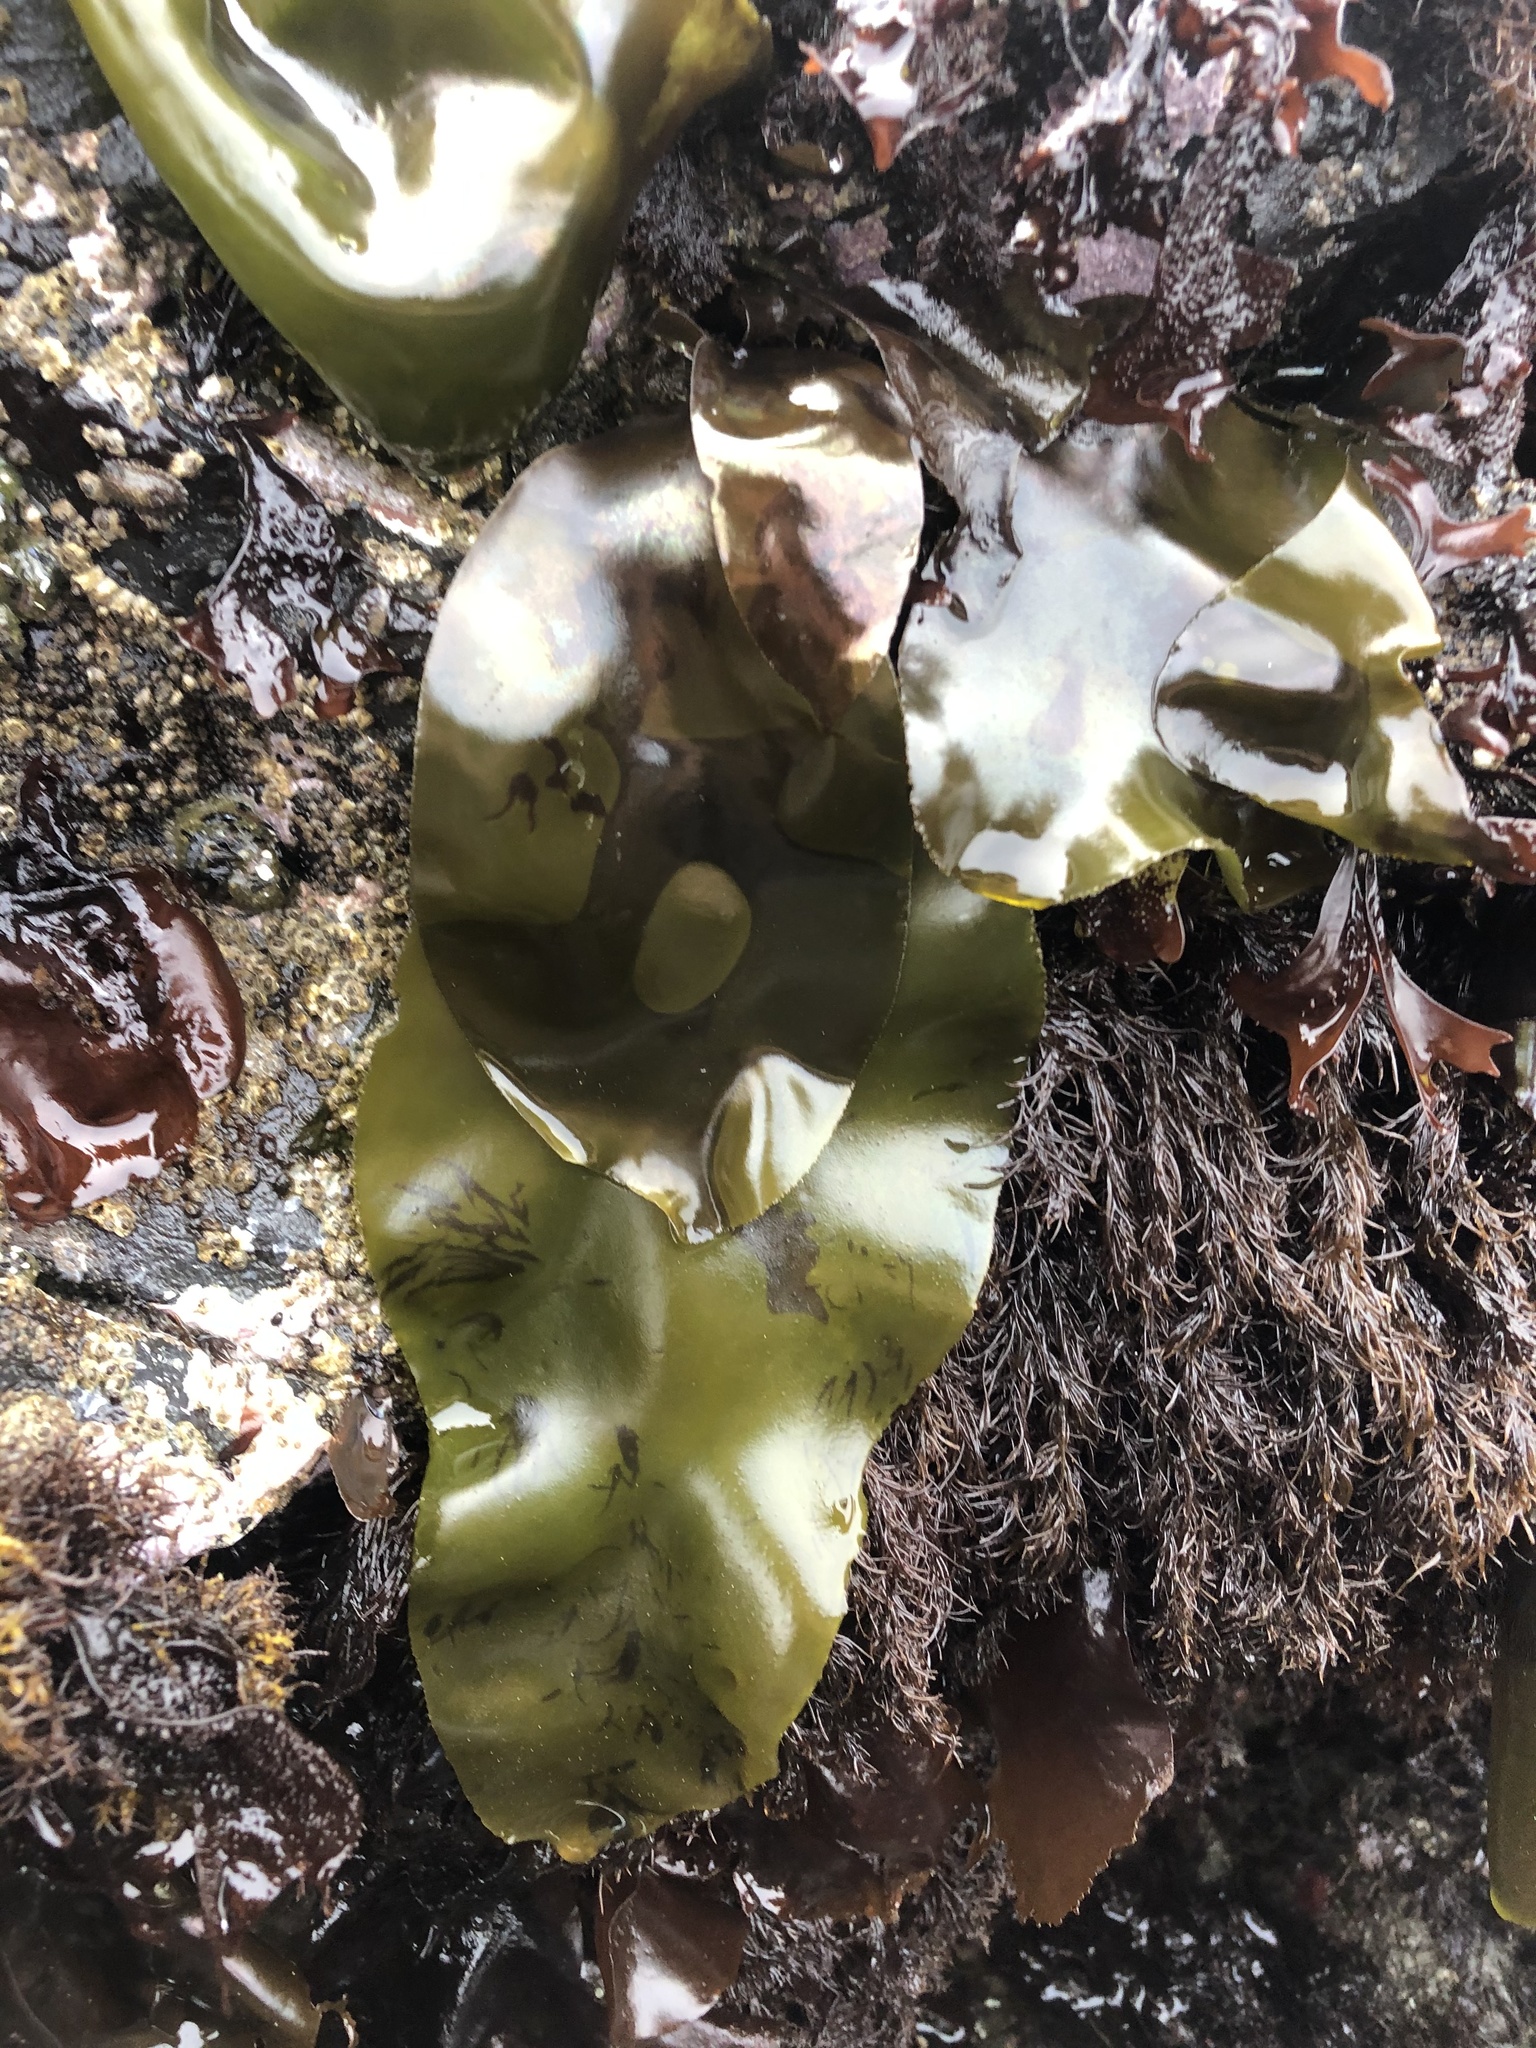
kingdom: Plantae
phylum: Rhodophyta
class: Florideophyceae
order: Gigartinales
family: Gigartinaceae
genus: Mazzaella
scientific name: Mazzaella flaccida
